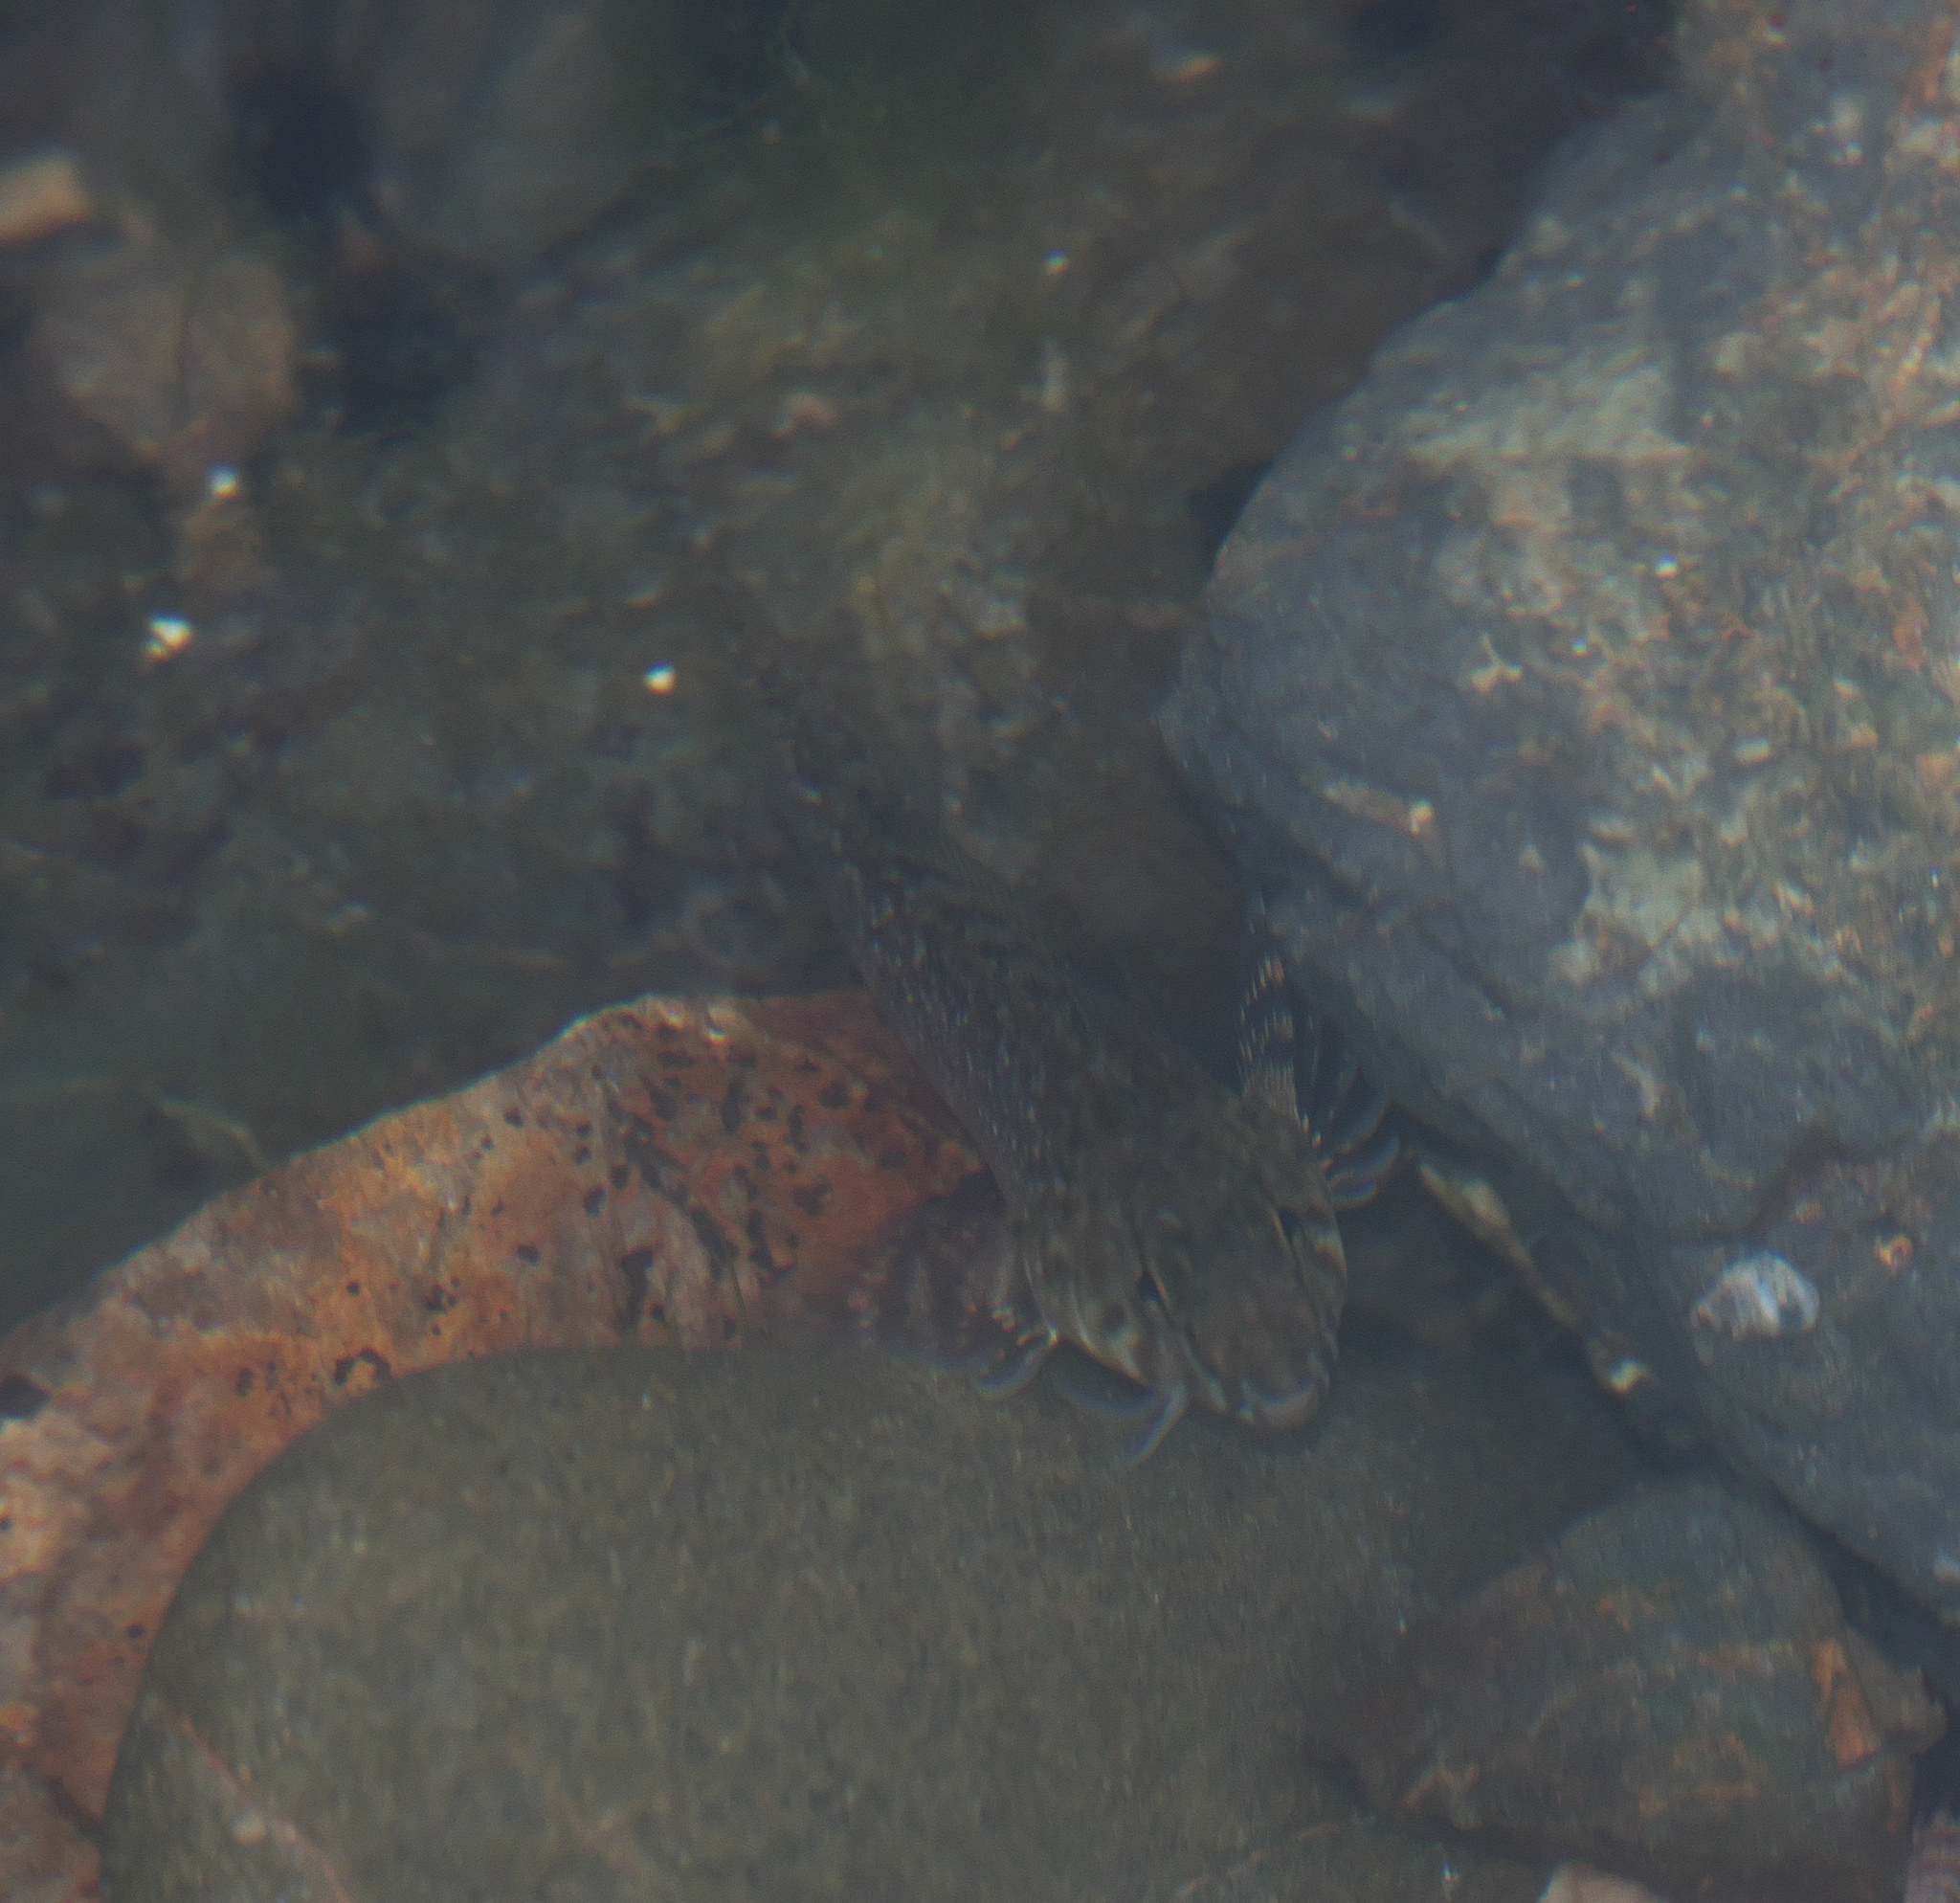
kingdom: Animalia
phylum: Chordata
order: Perciformes
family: Tripterygiidae
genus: Bellapiscis
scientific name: Bellapiscis medius
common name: Twister
